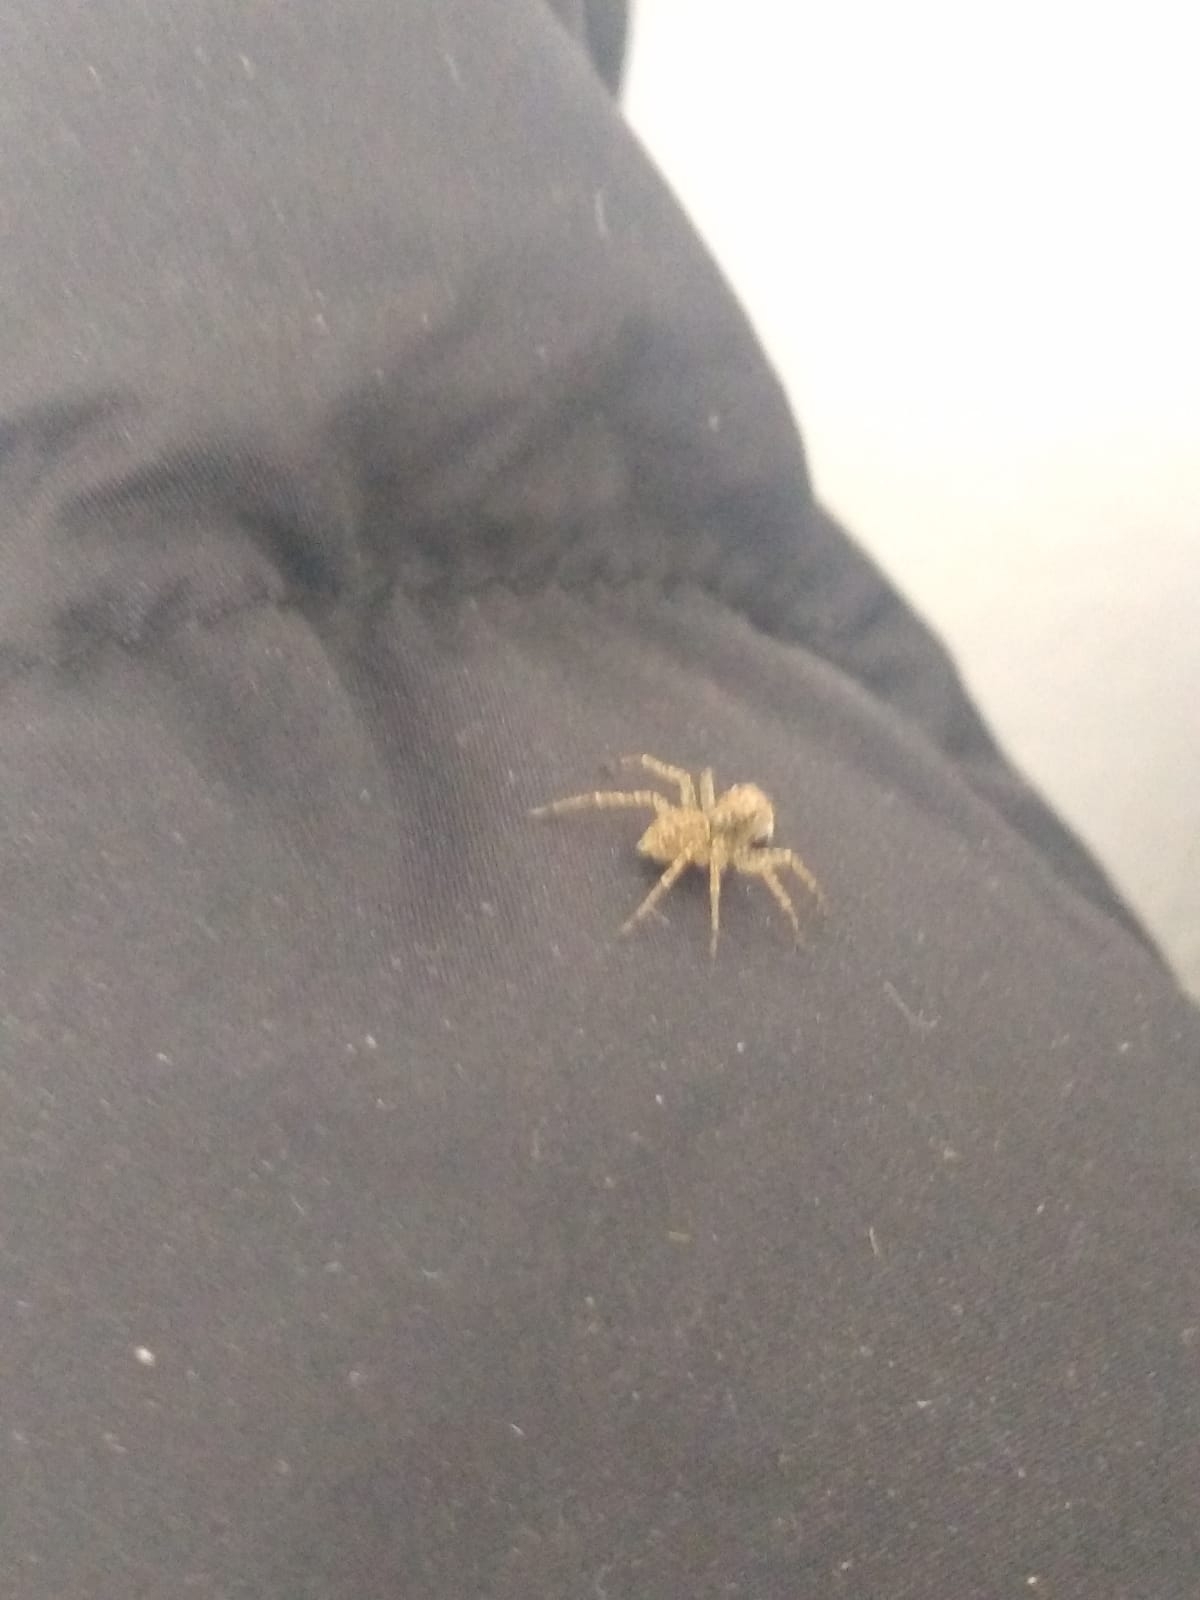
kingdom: Animalia
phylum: Arthropoda
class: Arachnida
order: Araneae
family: Salticidae
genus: Saitis
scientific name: Saitis variegatus
